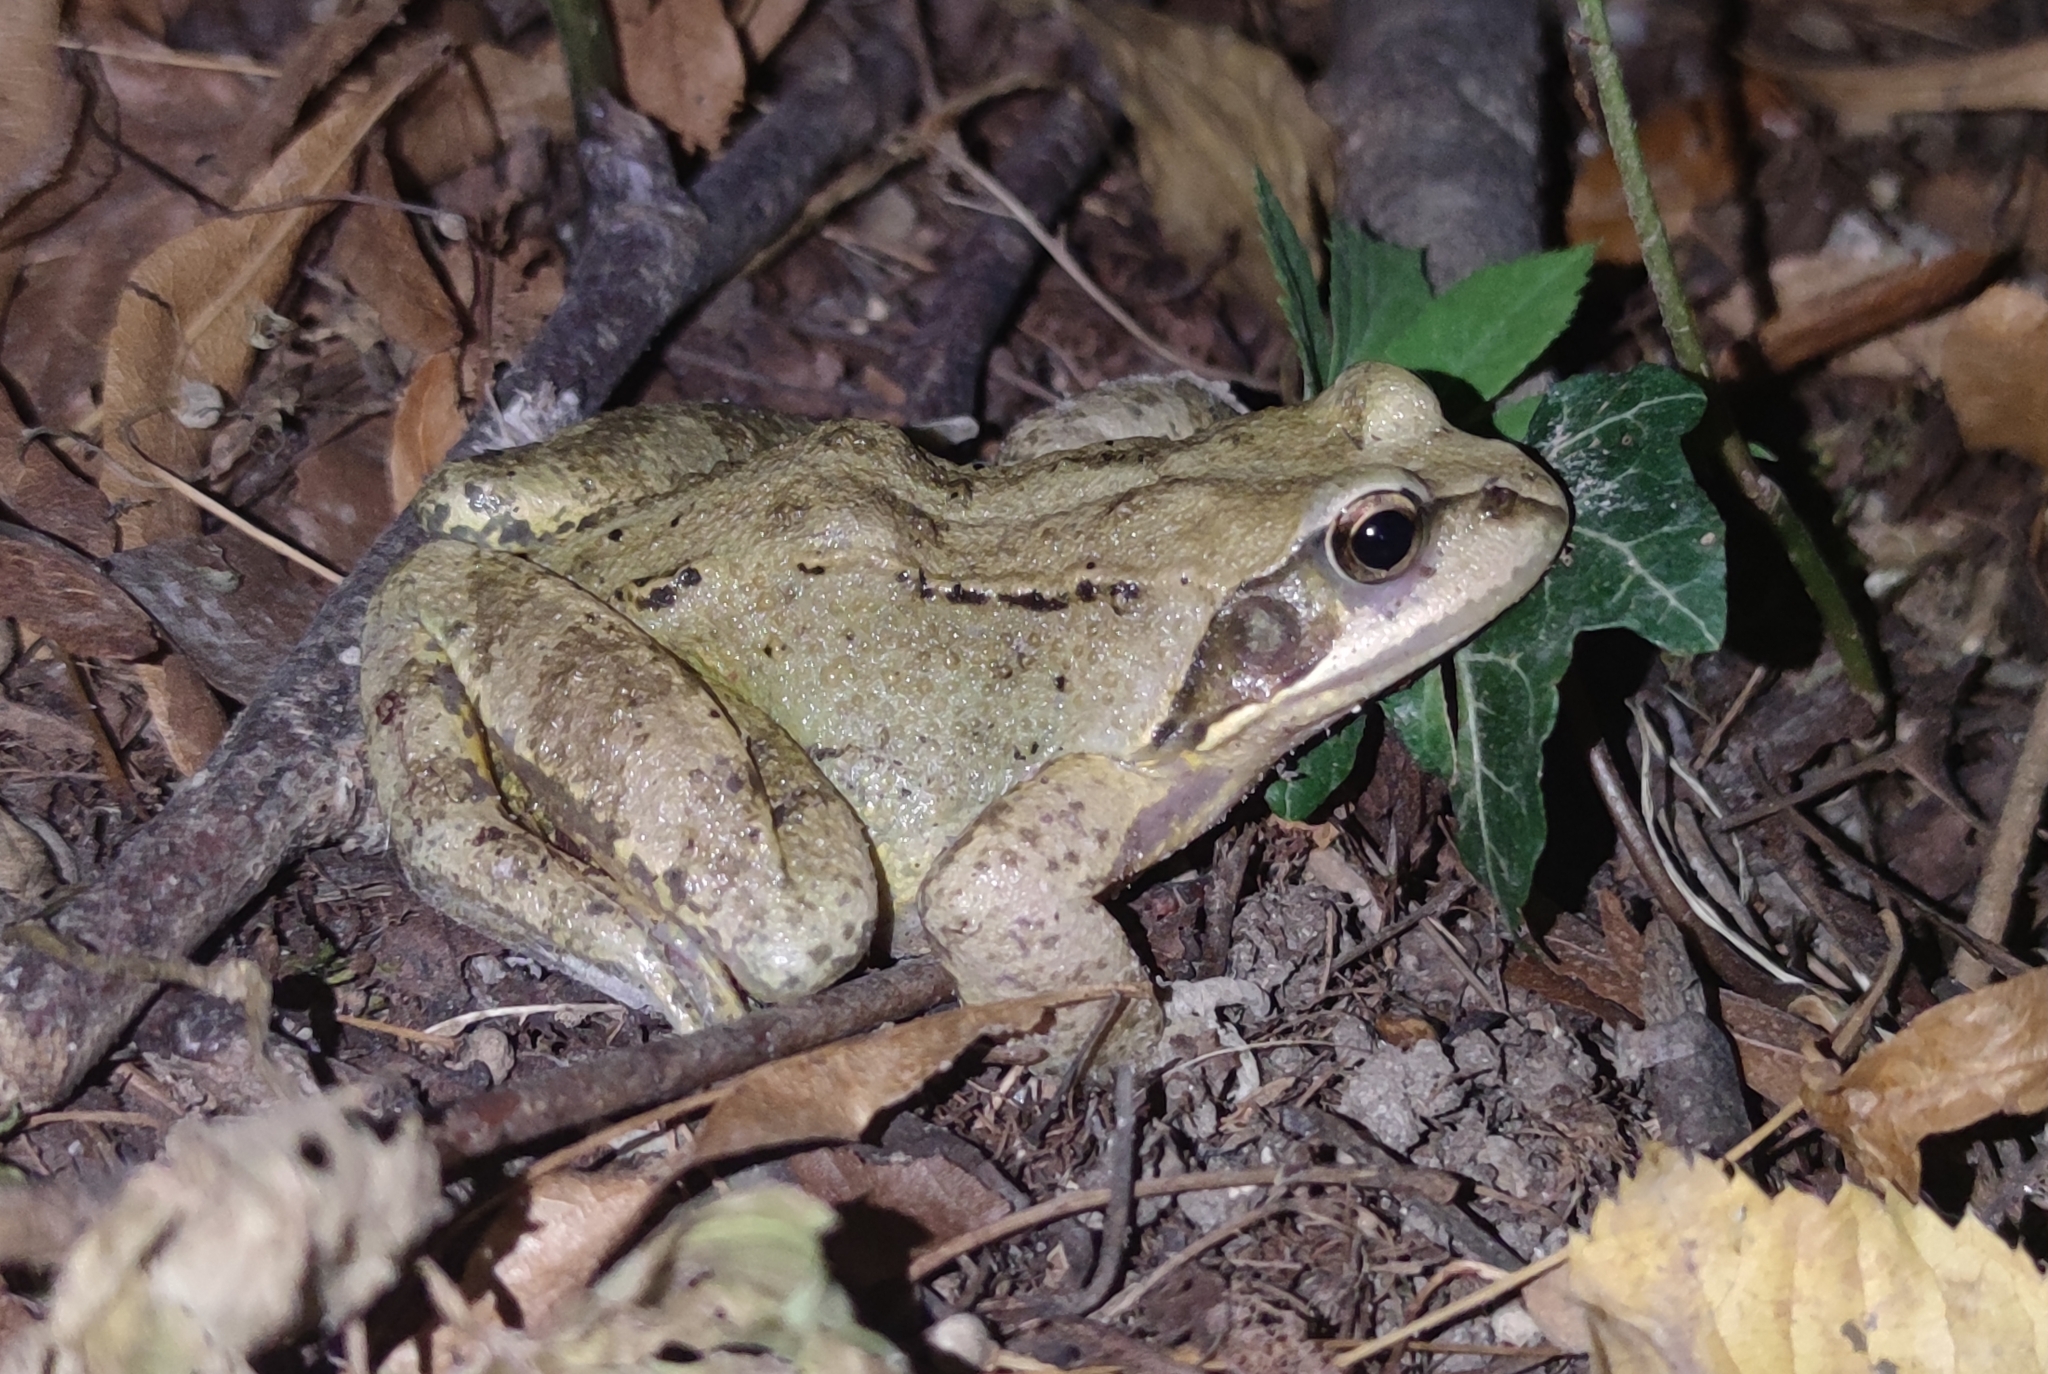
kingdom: Animalia
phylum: Chordata
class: Amphibia
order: Anura
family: Ranidae
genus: Rana
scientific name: Rana temporaria
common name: Common frog
